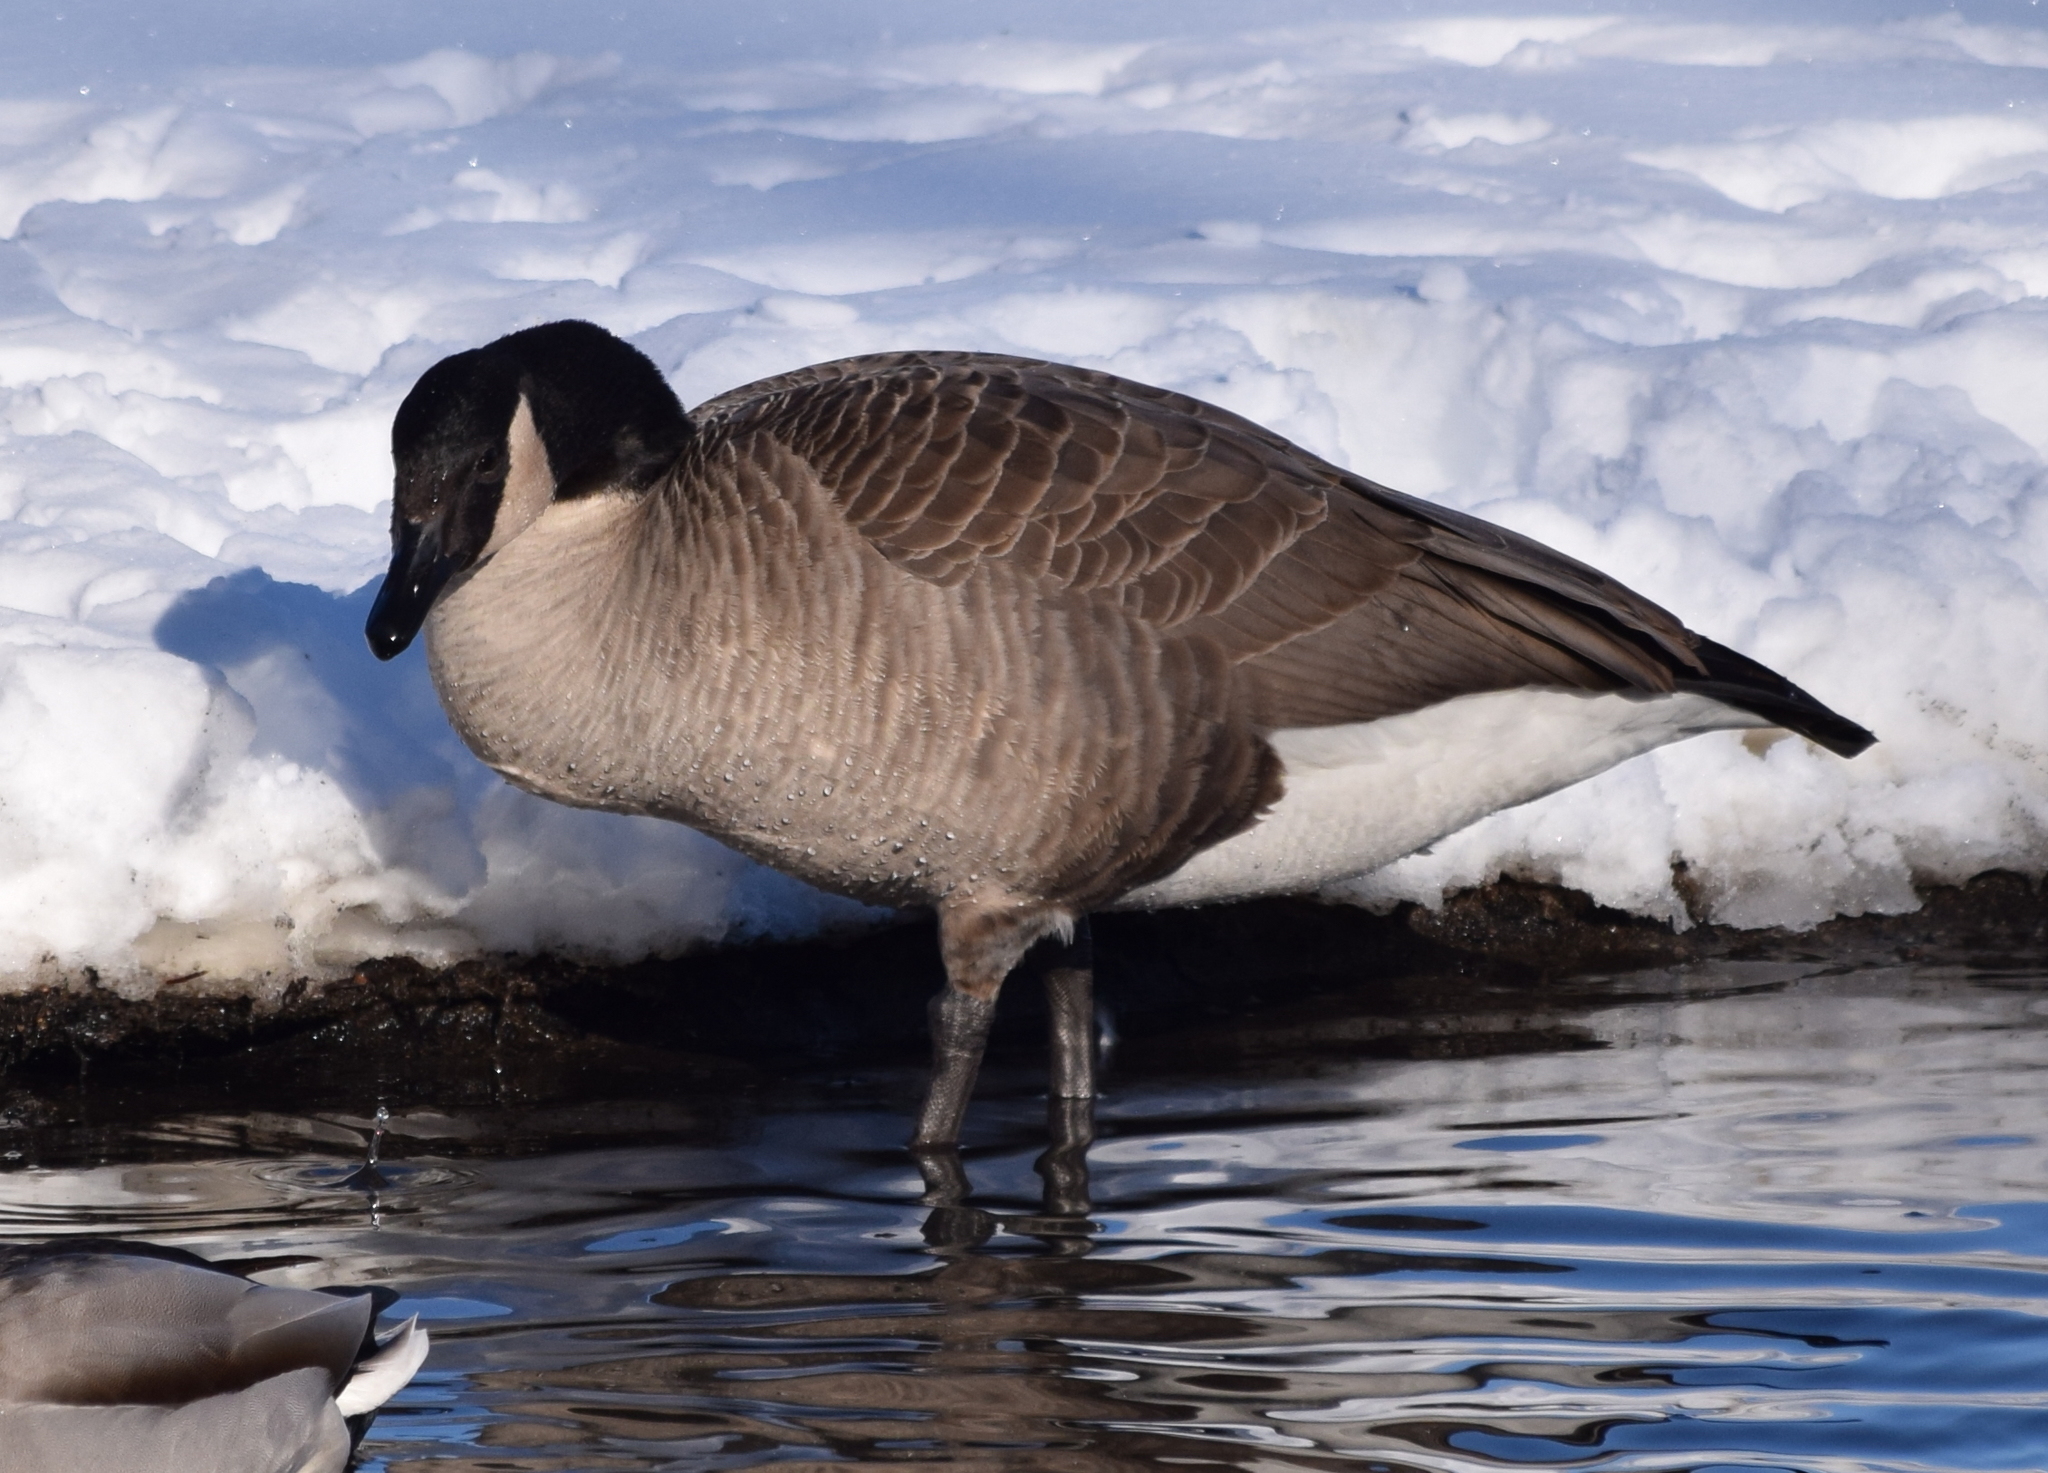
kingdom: Animalia
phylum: Chordata
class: Aves
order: Anseriformes
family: Anatidae
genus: Branta
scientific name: Branta canadensis
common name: Canada goose
